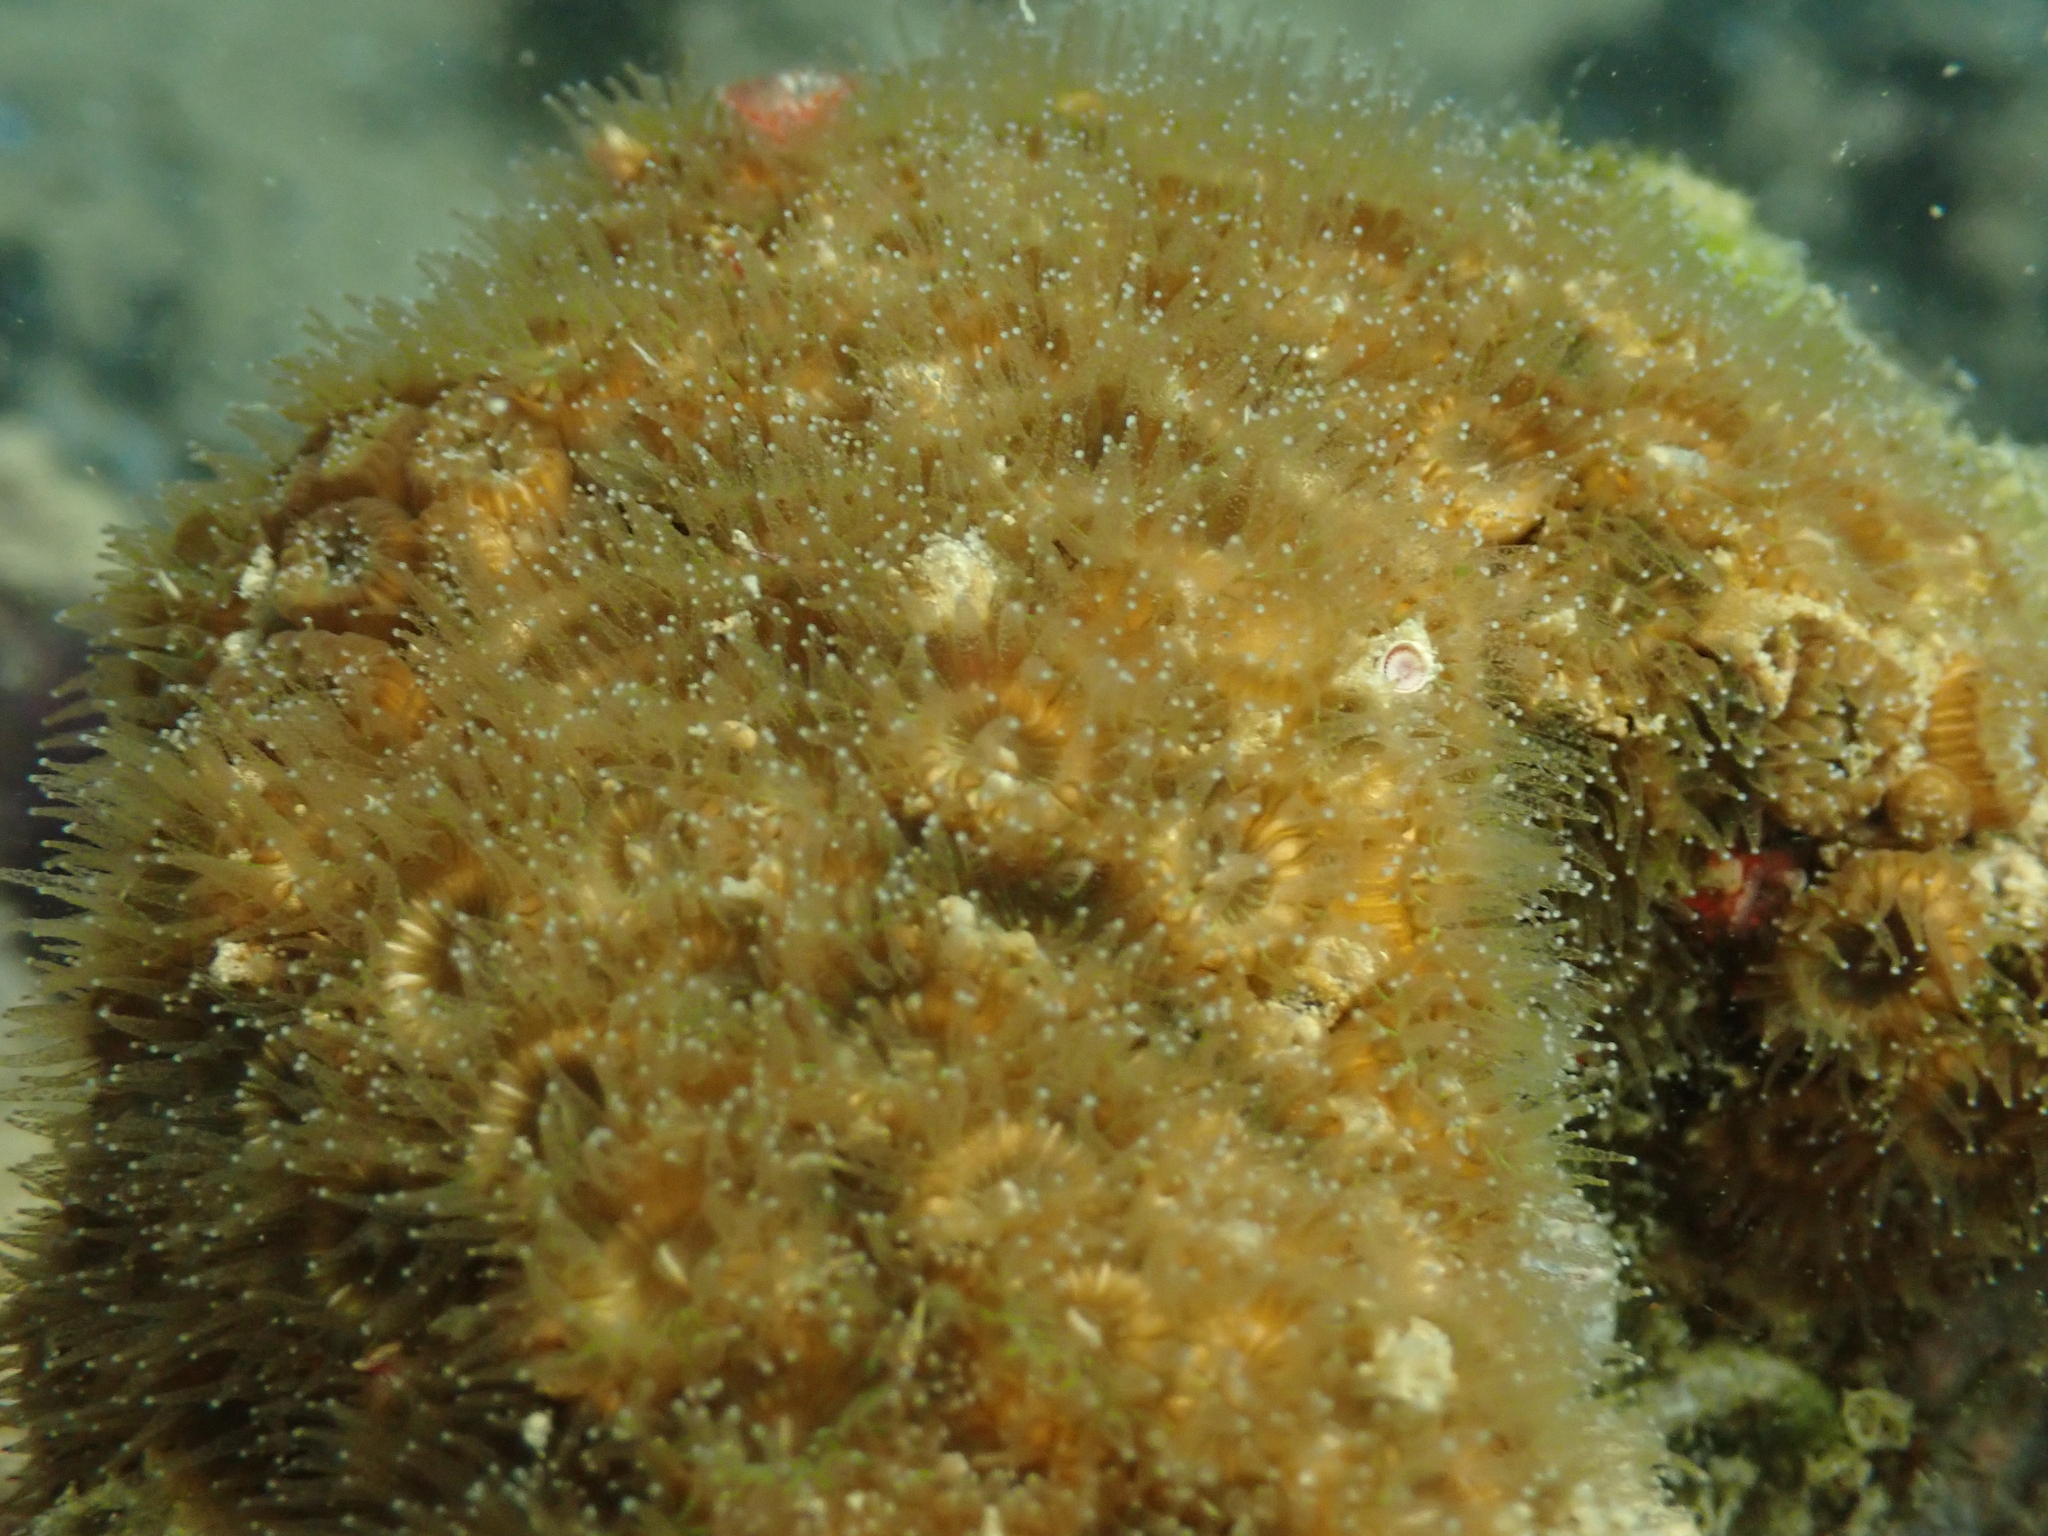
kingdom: Animalia
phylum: Cnidaria
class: Anthozoa
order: Scleractinia
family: Cladocoridae
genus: Cladocora
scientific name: Cladocora caespitosa
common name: Cladocora
